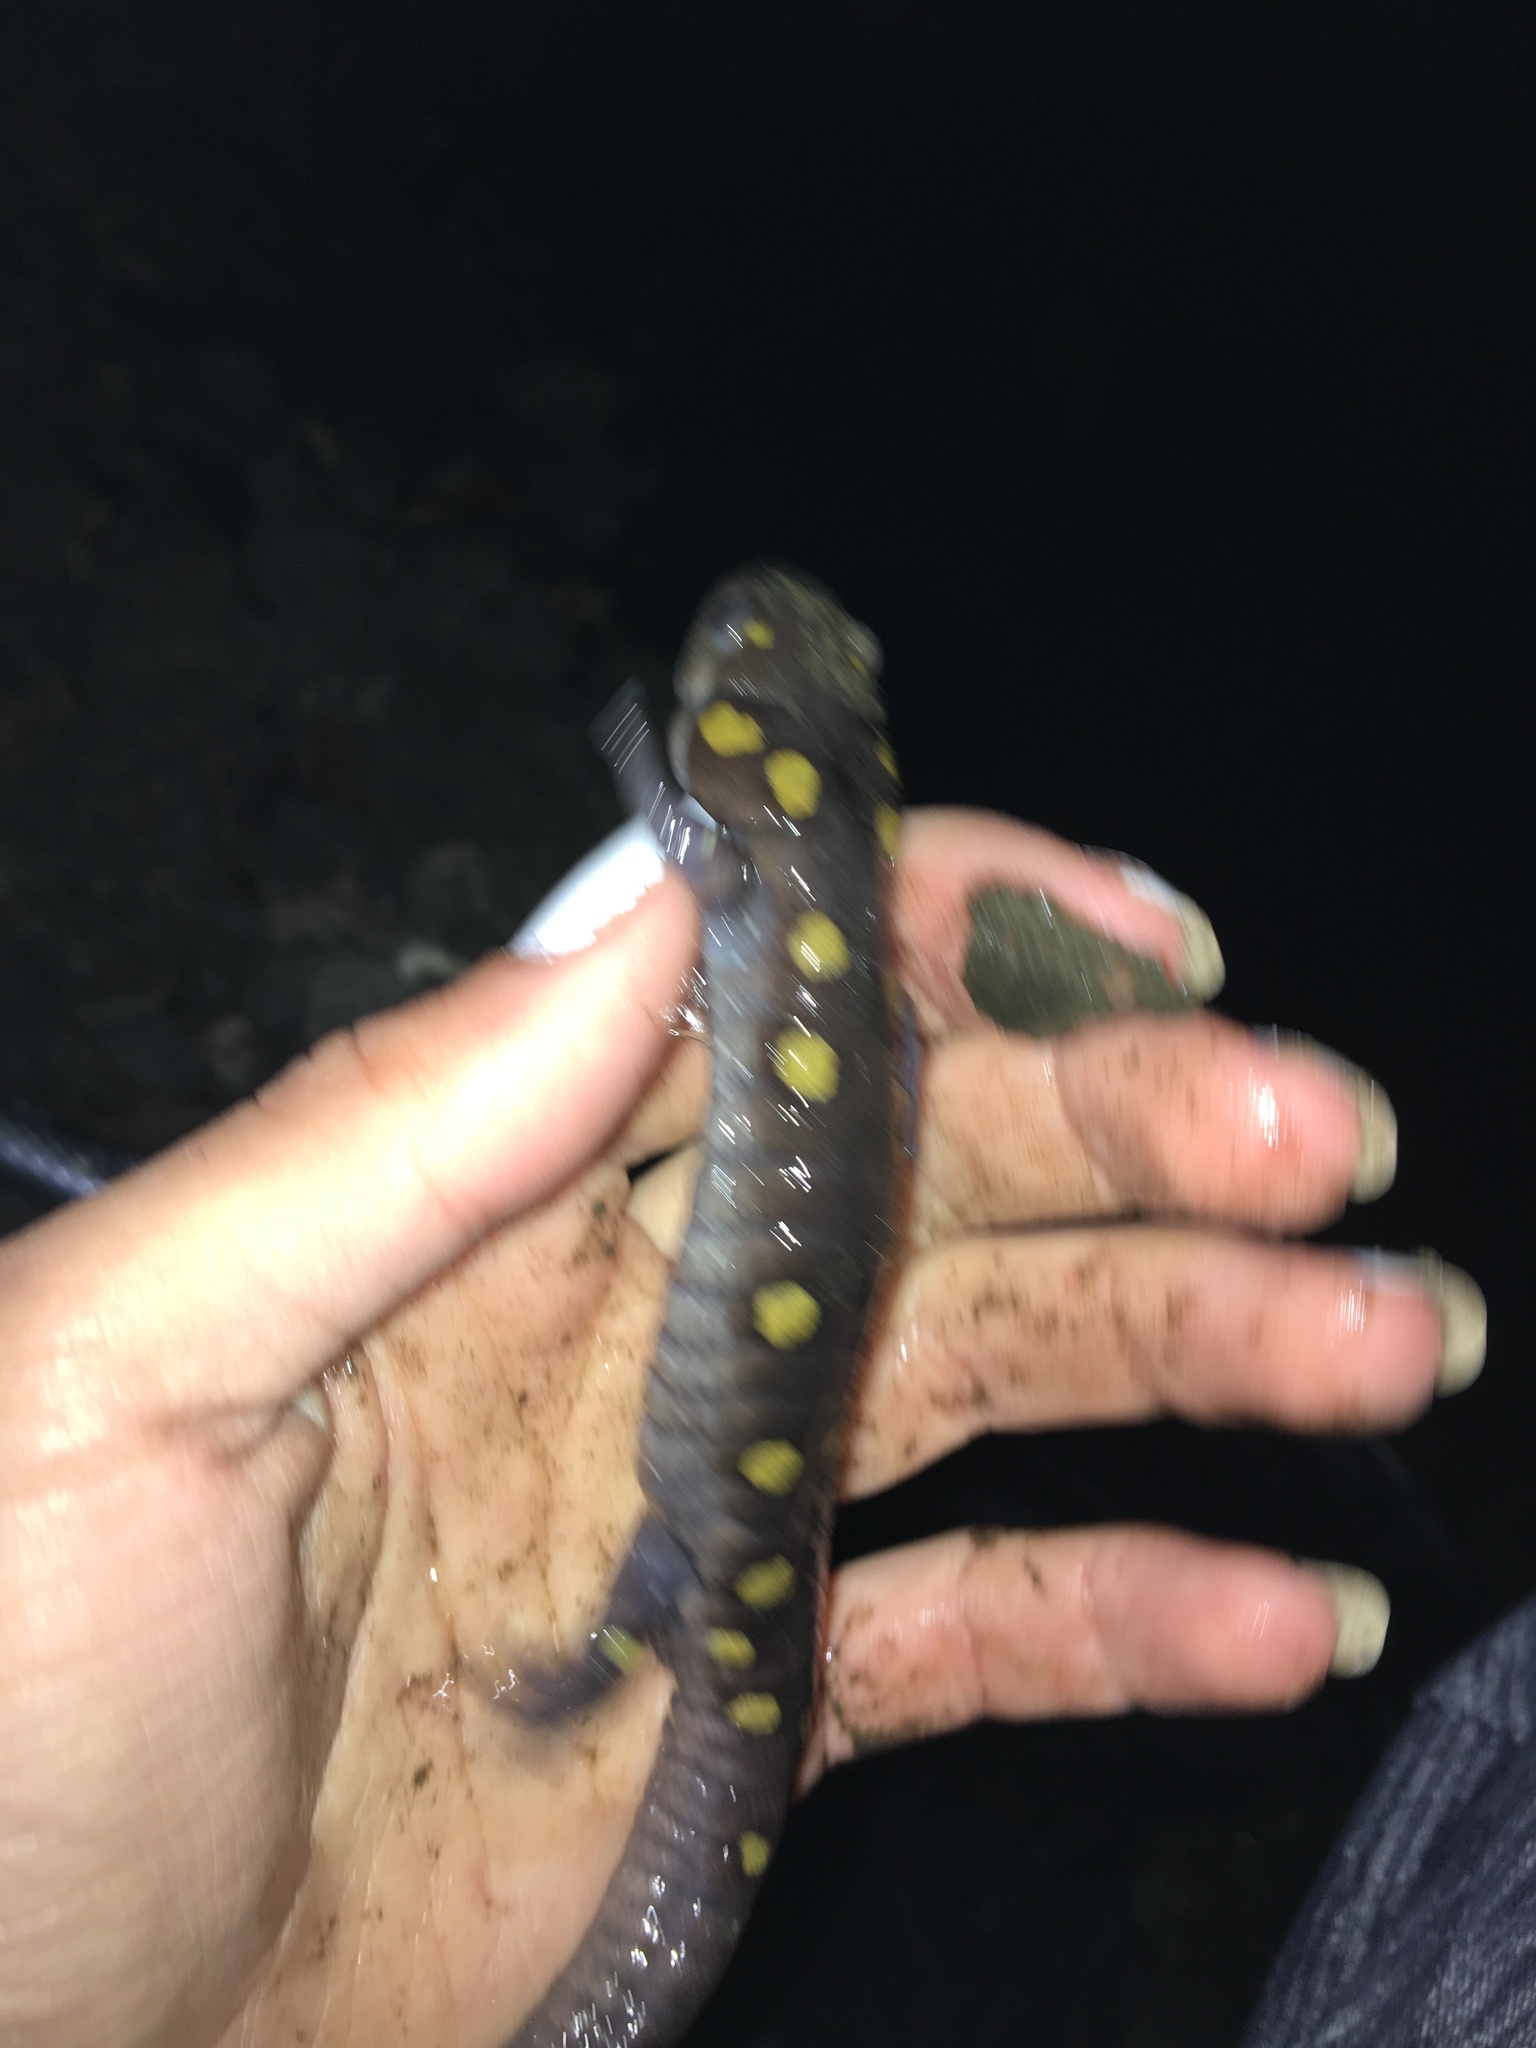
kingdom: Animalia
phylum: Chordata
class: Amphibia
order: Caudata
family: Ambystomatidae
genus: Ambystoma
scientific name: Ambystoma maculatum
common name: Spotted salamander
